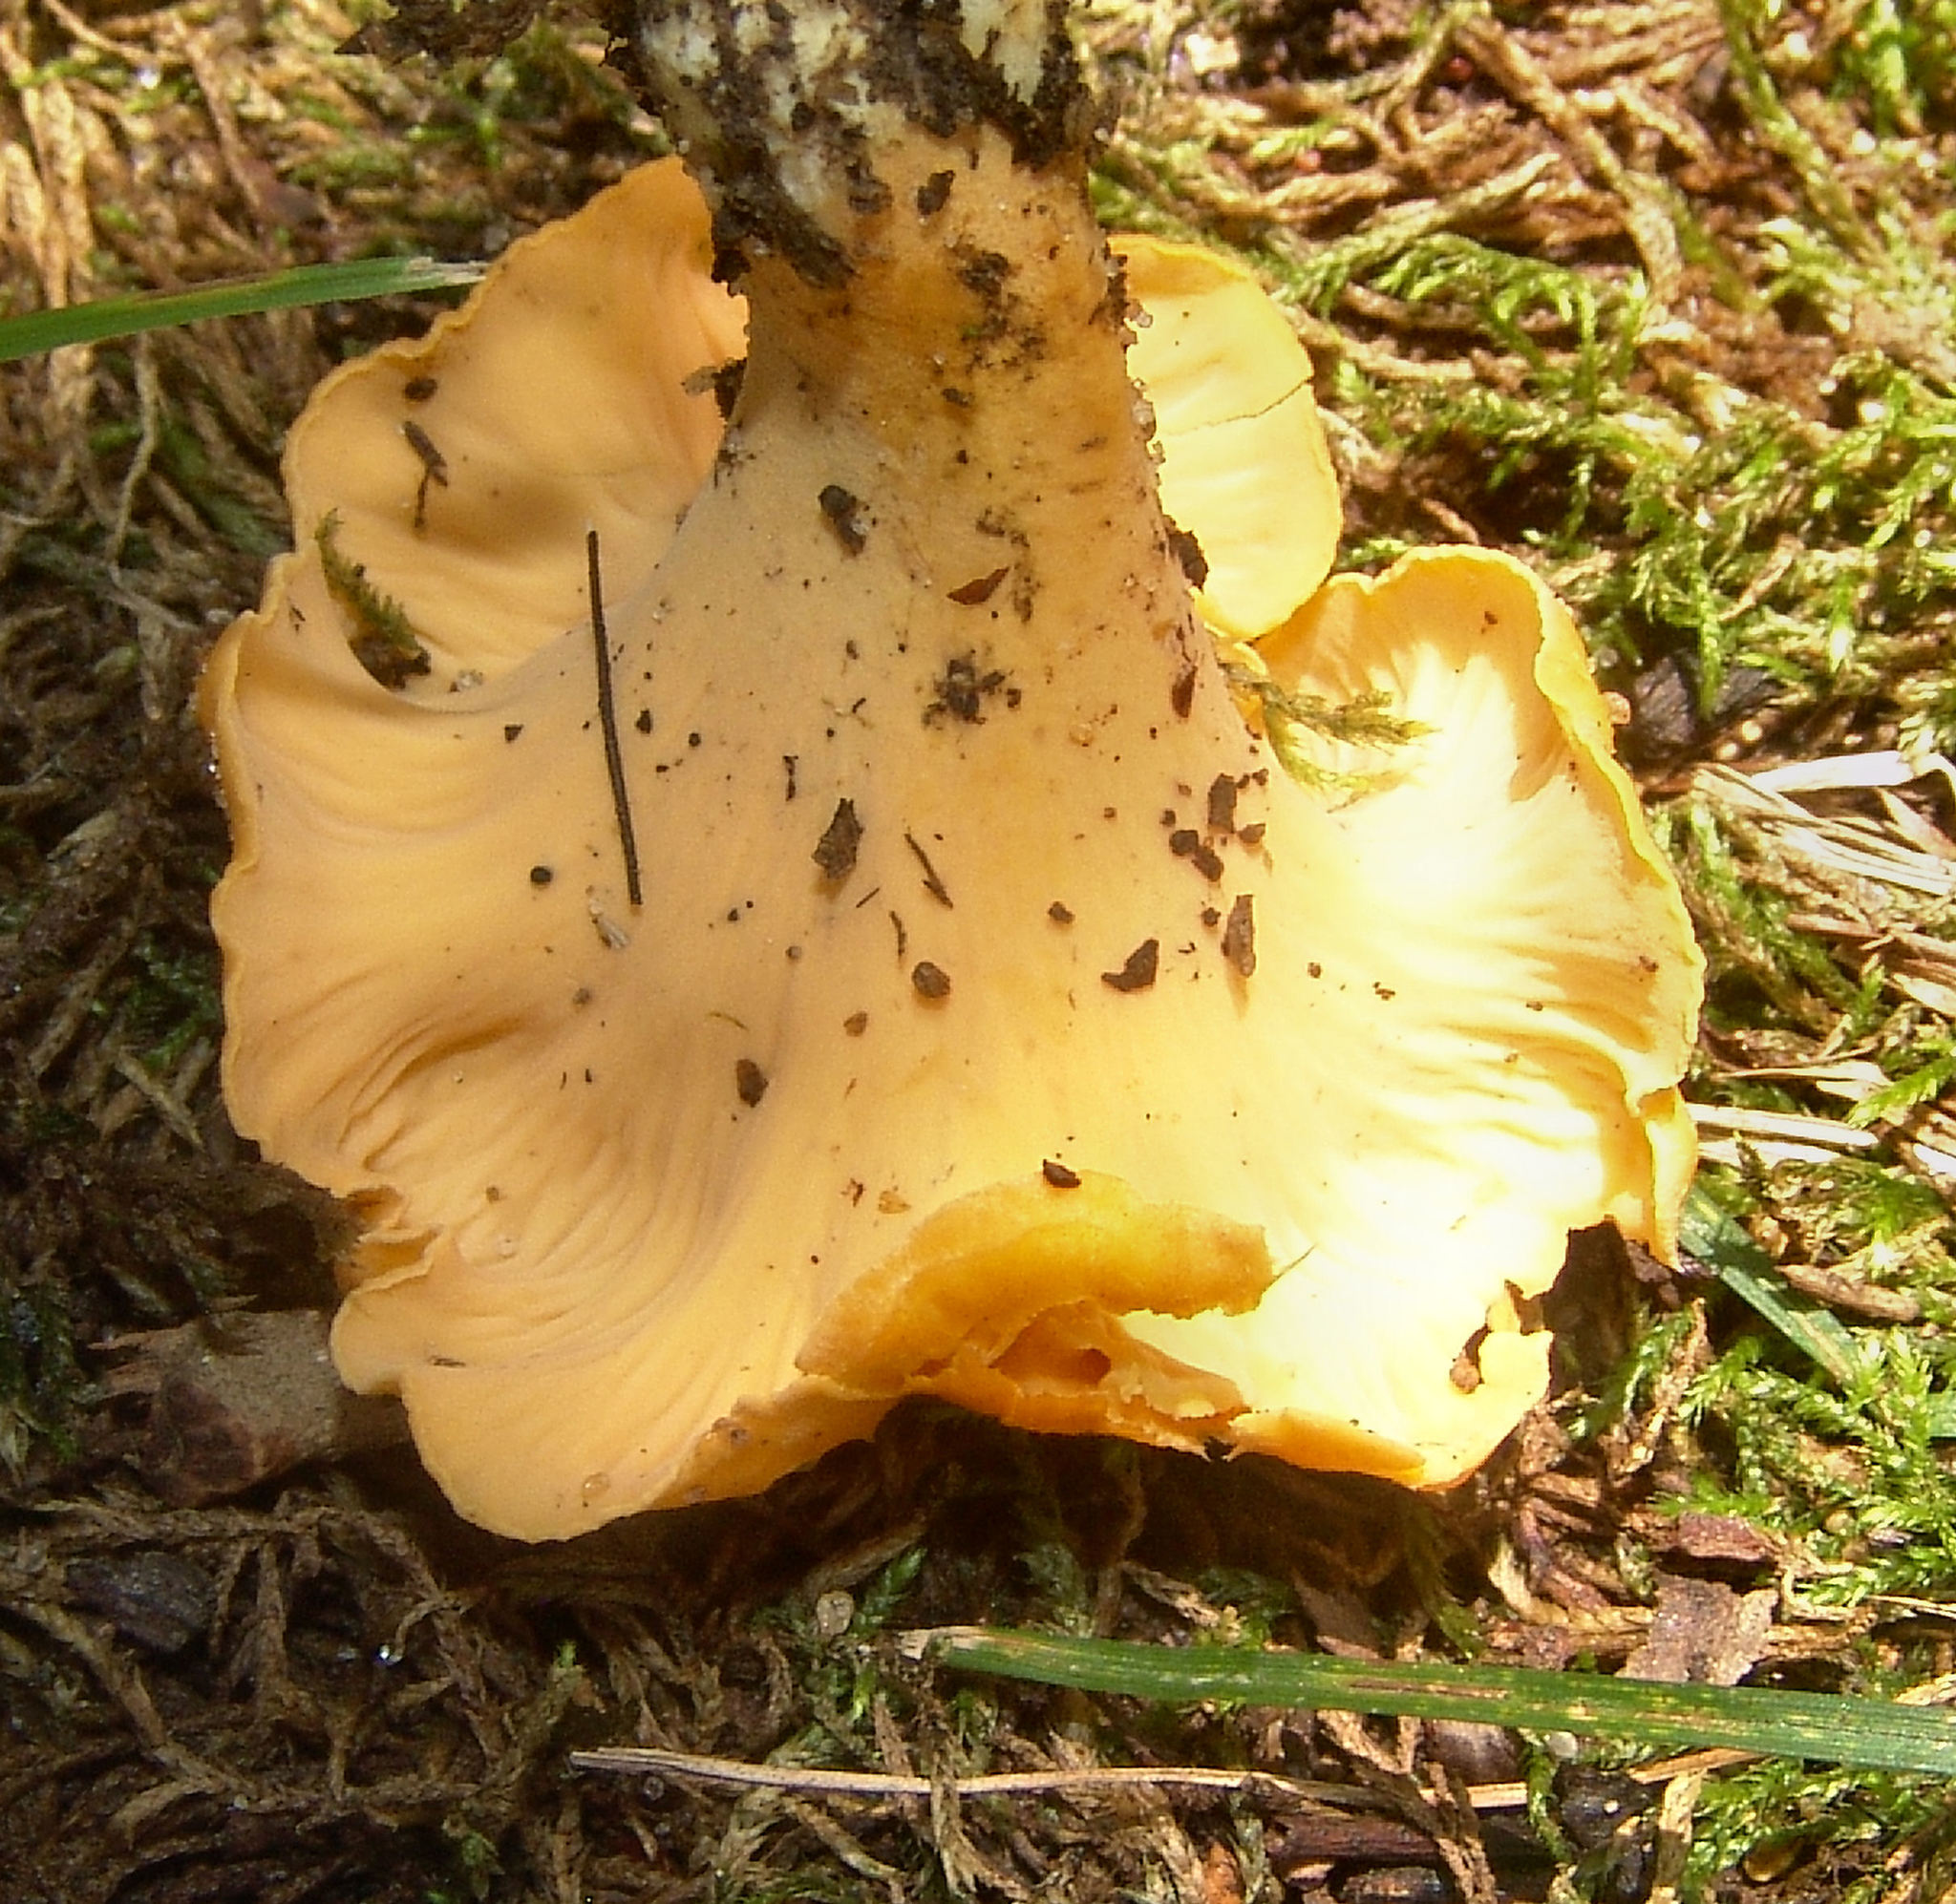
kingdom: Fungi
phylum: Basidiomycota
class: Agaricomycetes
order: Cantharellales
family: Hydnaceae
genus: Cantharellus
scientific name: Cantharellus lateritius
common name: Smooth chanterelle
